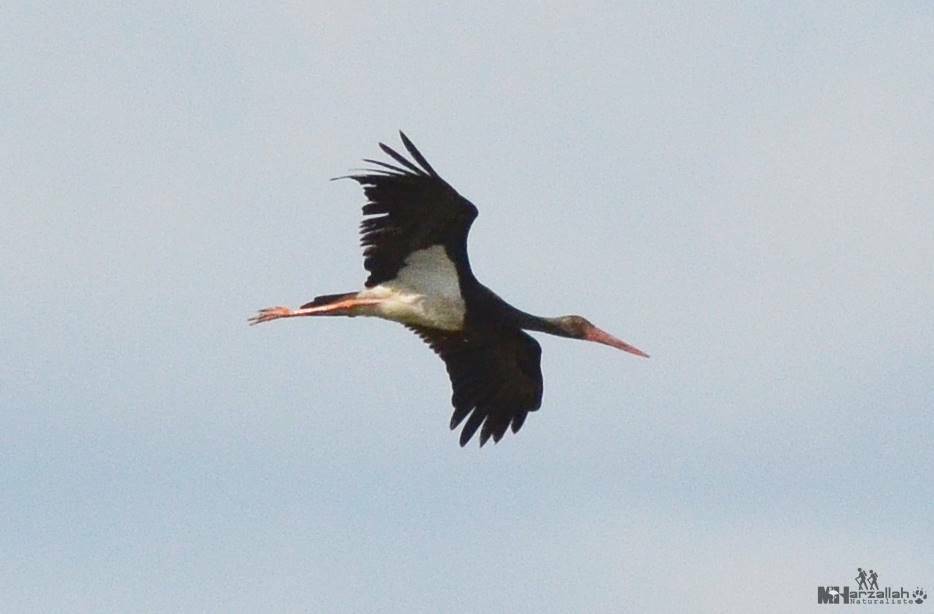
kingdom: Animalia
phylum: Chordata
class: Aves
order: Ciconiiformes
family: Ciconiidae
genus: Ciconia
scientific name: Ciconia nigra
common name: Black stork
